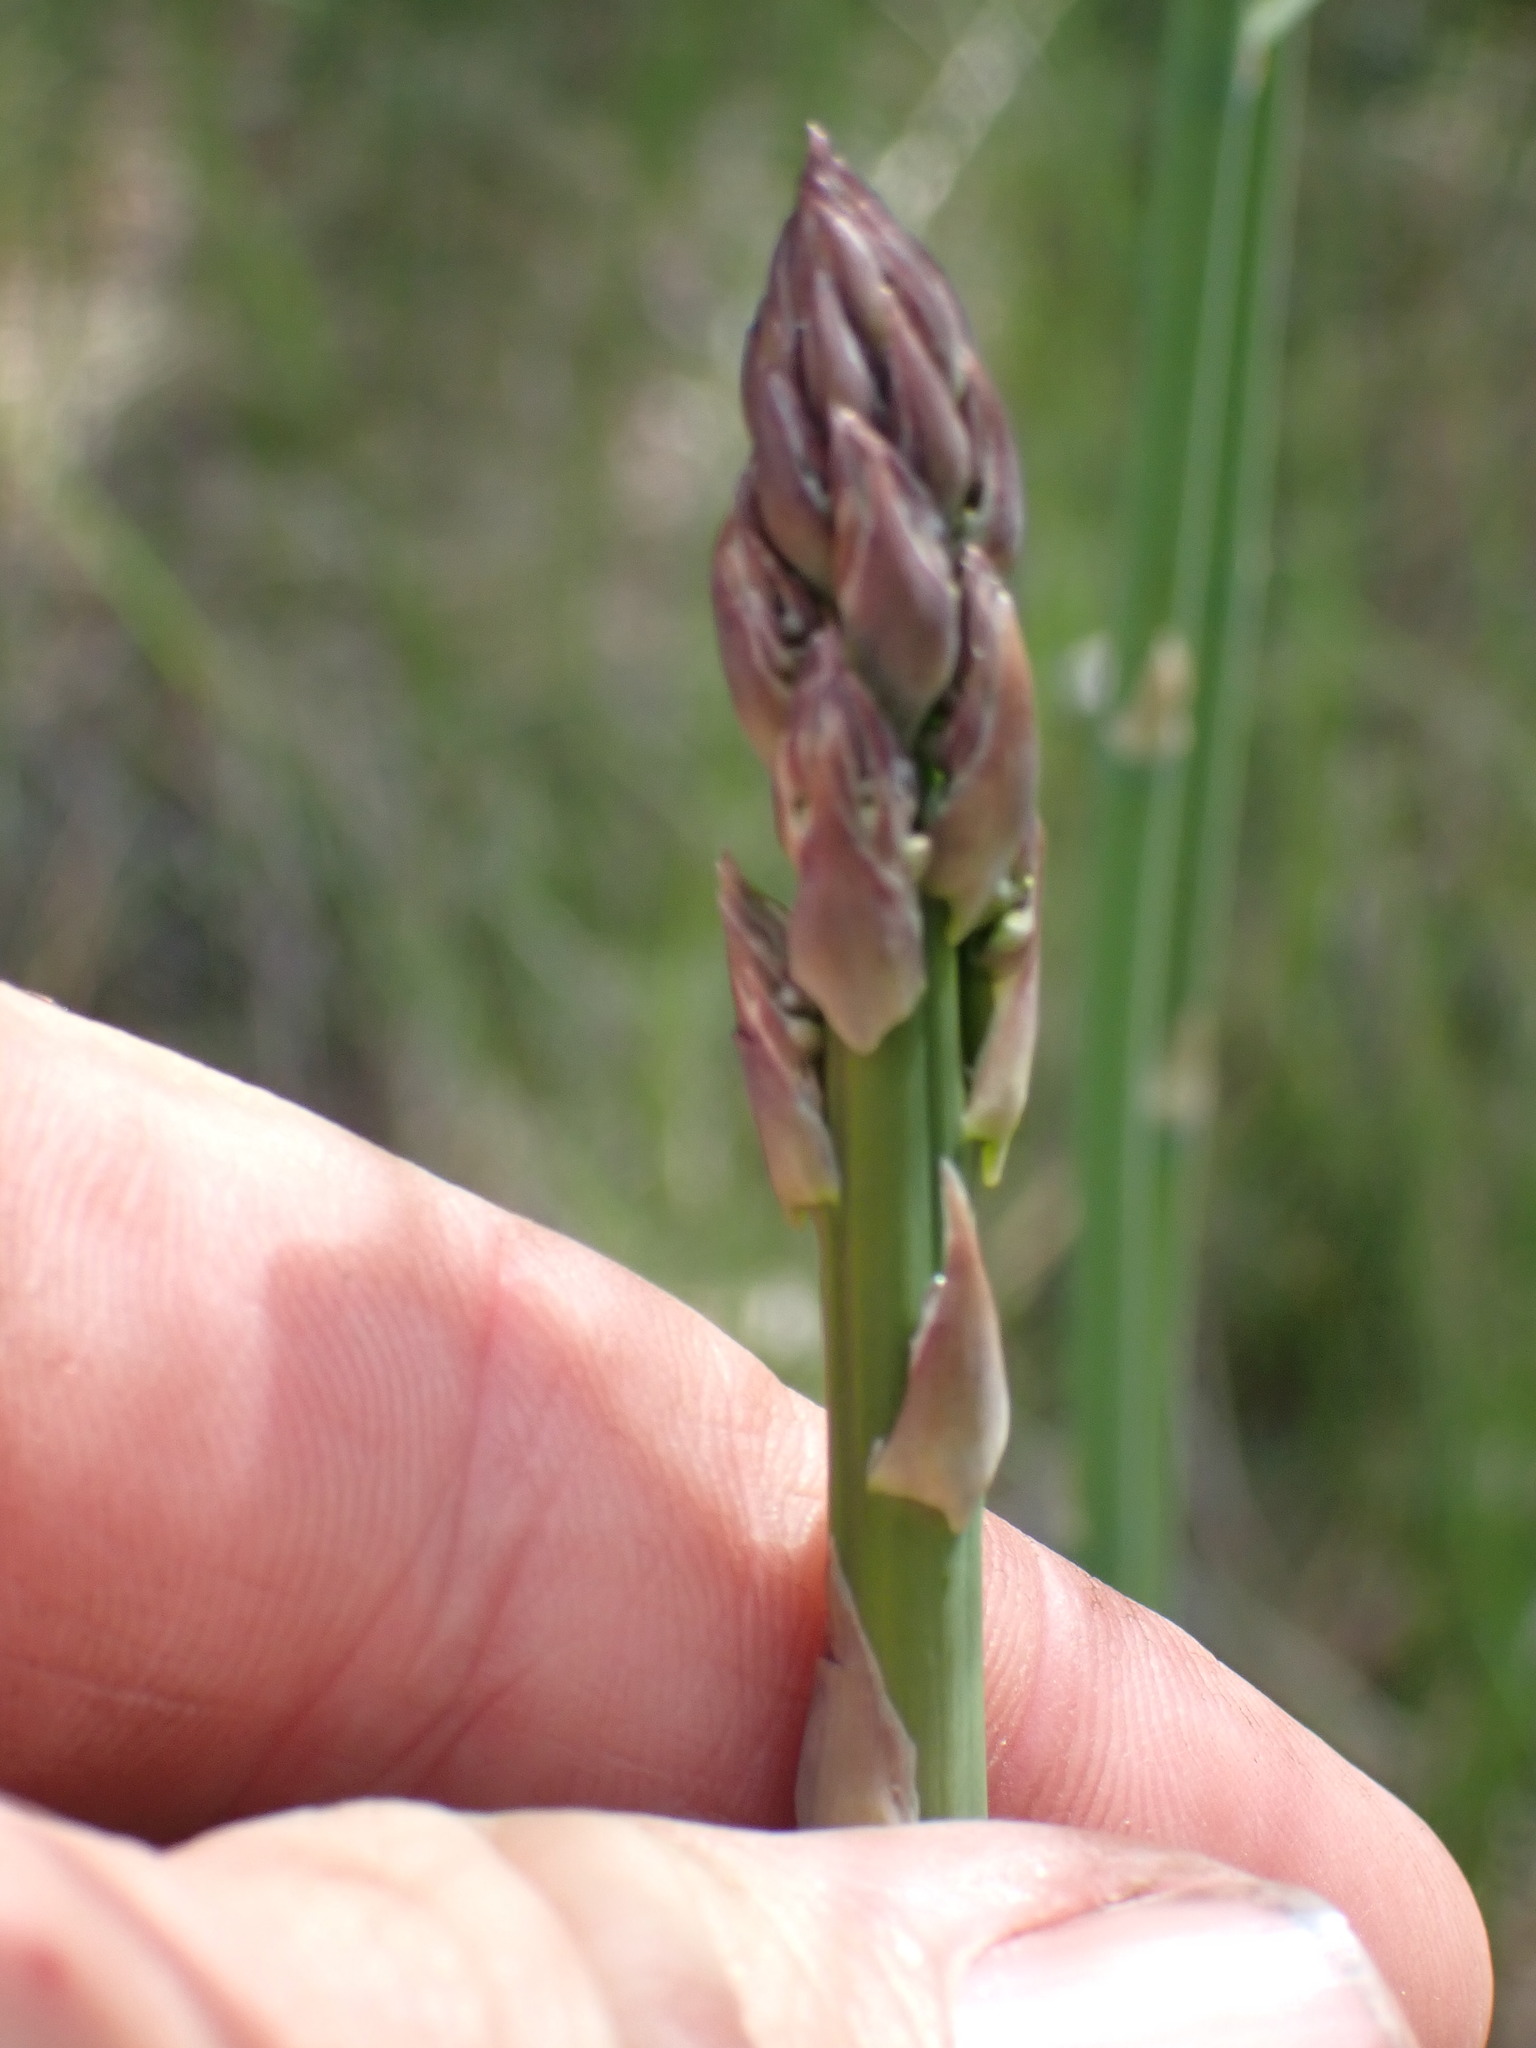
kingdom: Plantae
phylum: Tracheophyta
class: Liliopsida
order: Asparagales
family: Asparagaceae
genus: Asparagus
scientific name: Asparagus officinalis
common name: Garden asparagus
